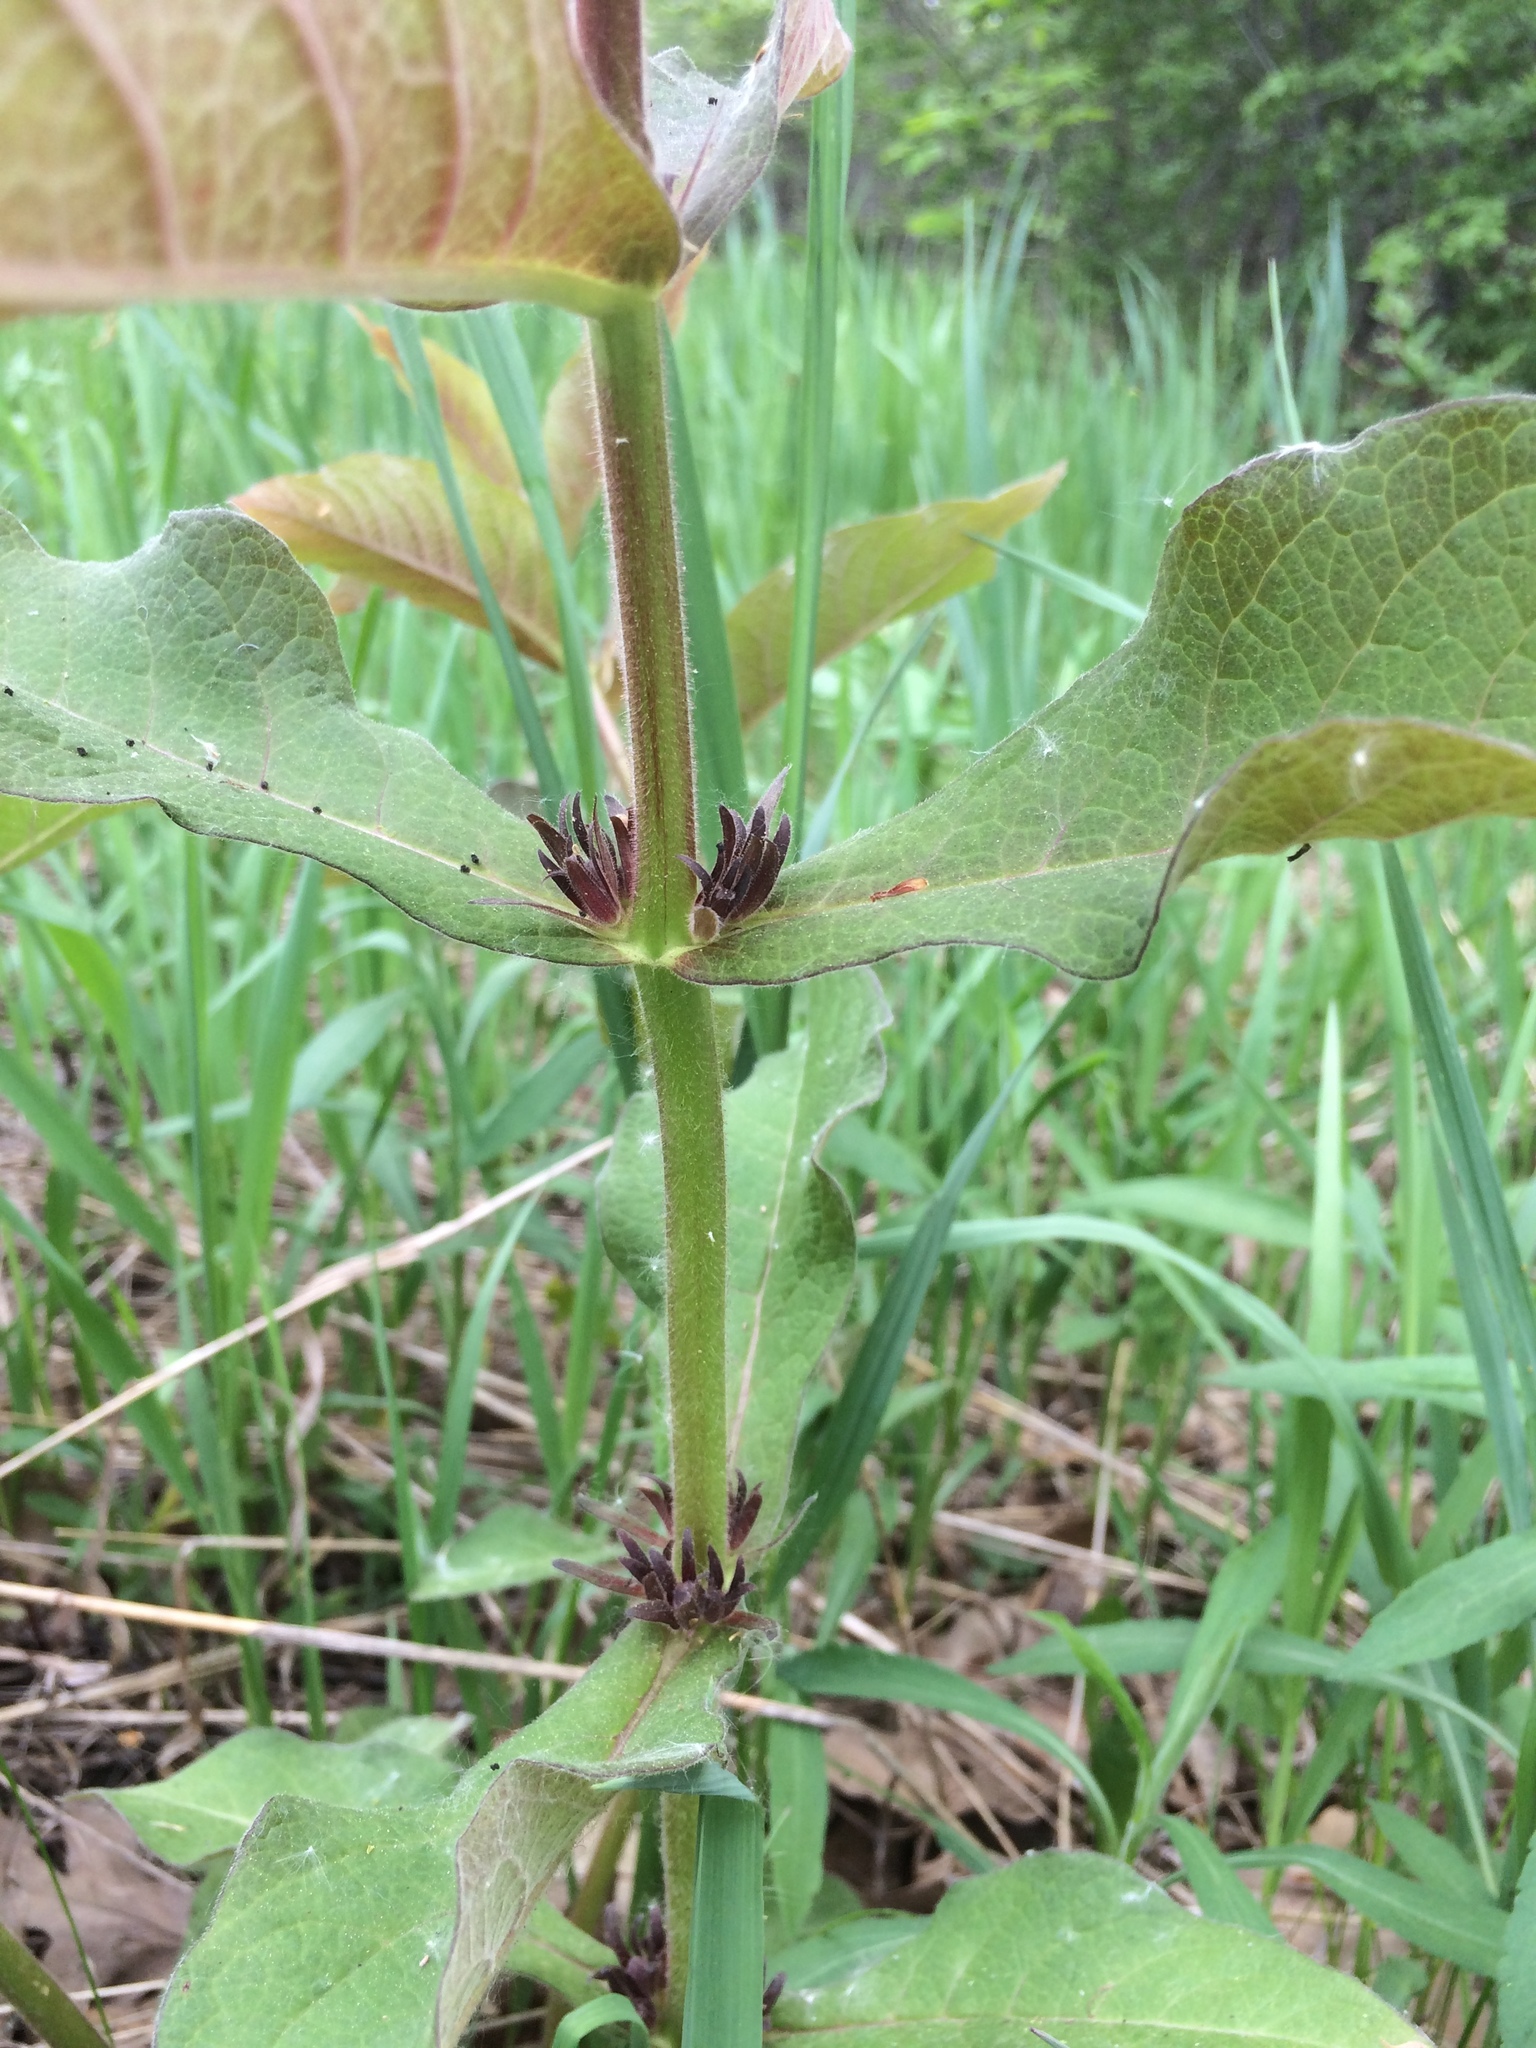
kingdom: Plantae
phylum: Tracheophyta
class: Magnoliopsida
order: Dipsacales
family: Caprifoliaceae
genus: Triosteum
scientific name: Triosteum aurantiacum
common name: Coffee tinker's-weed
